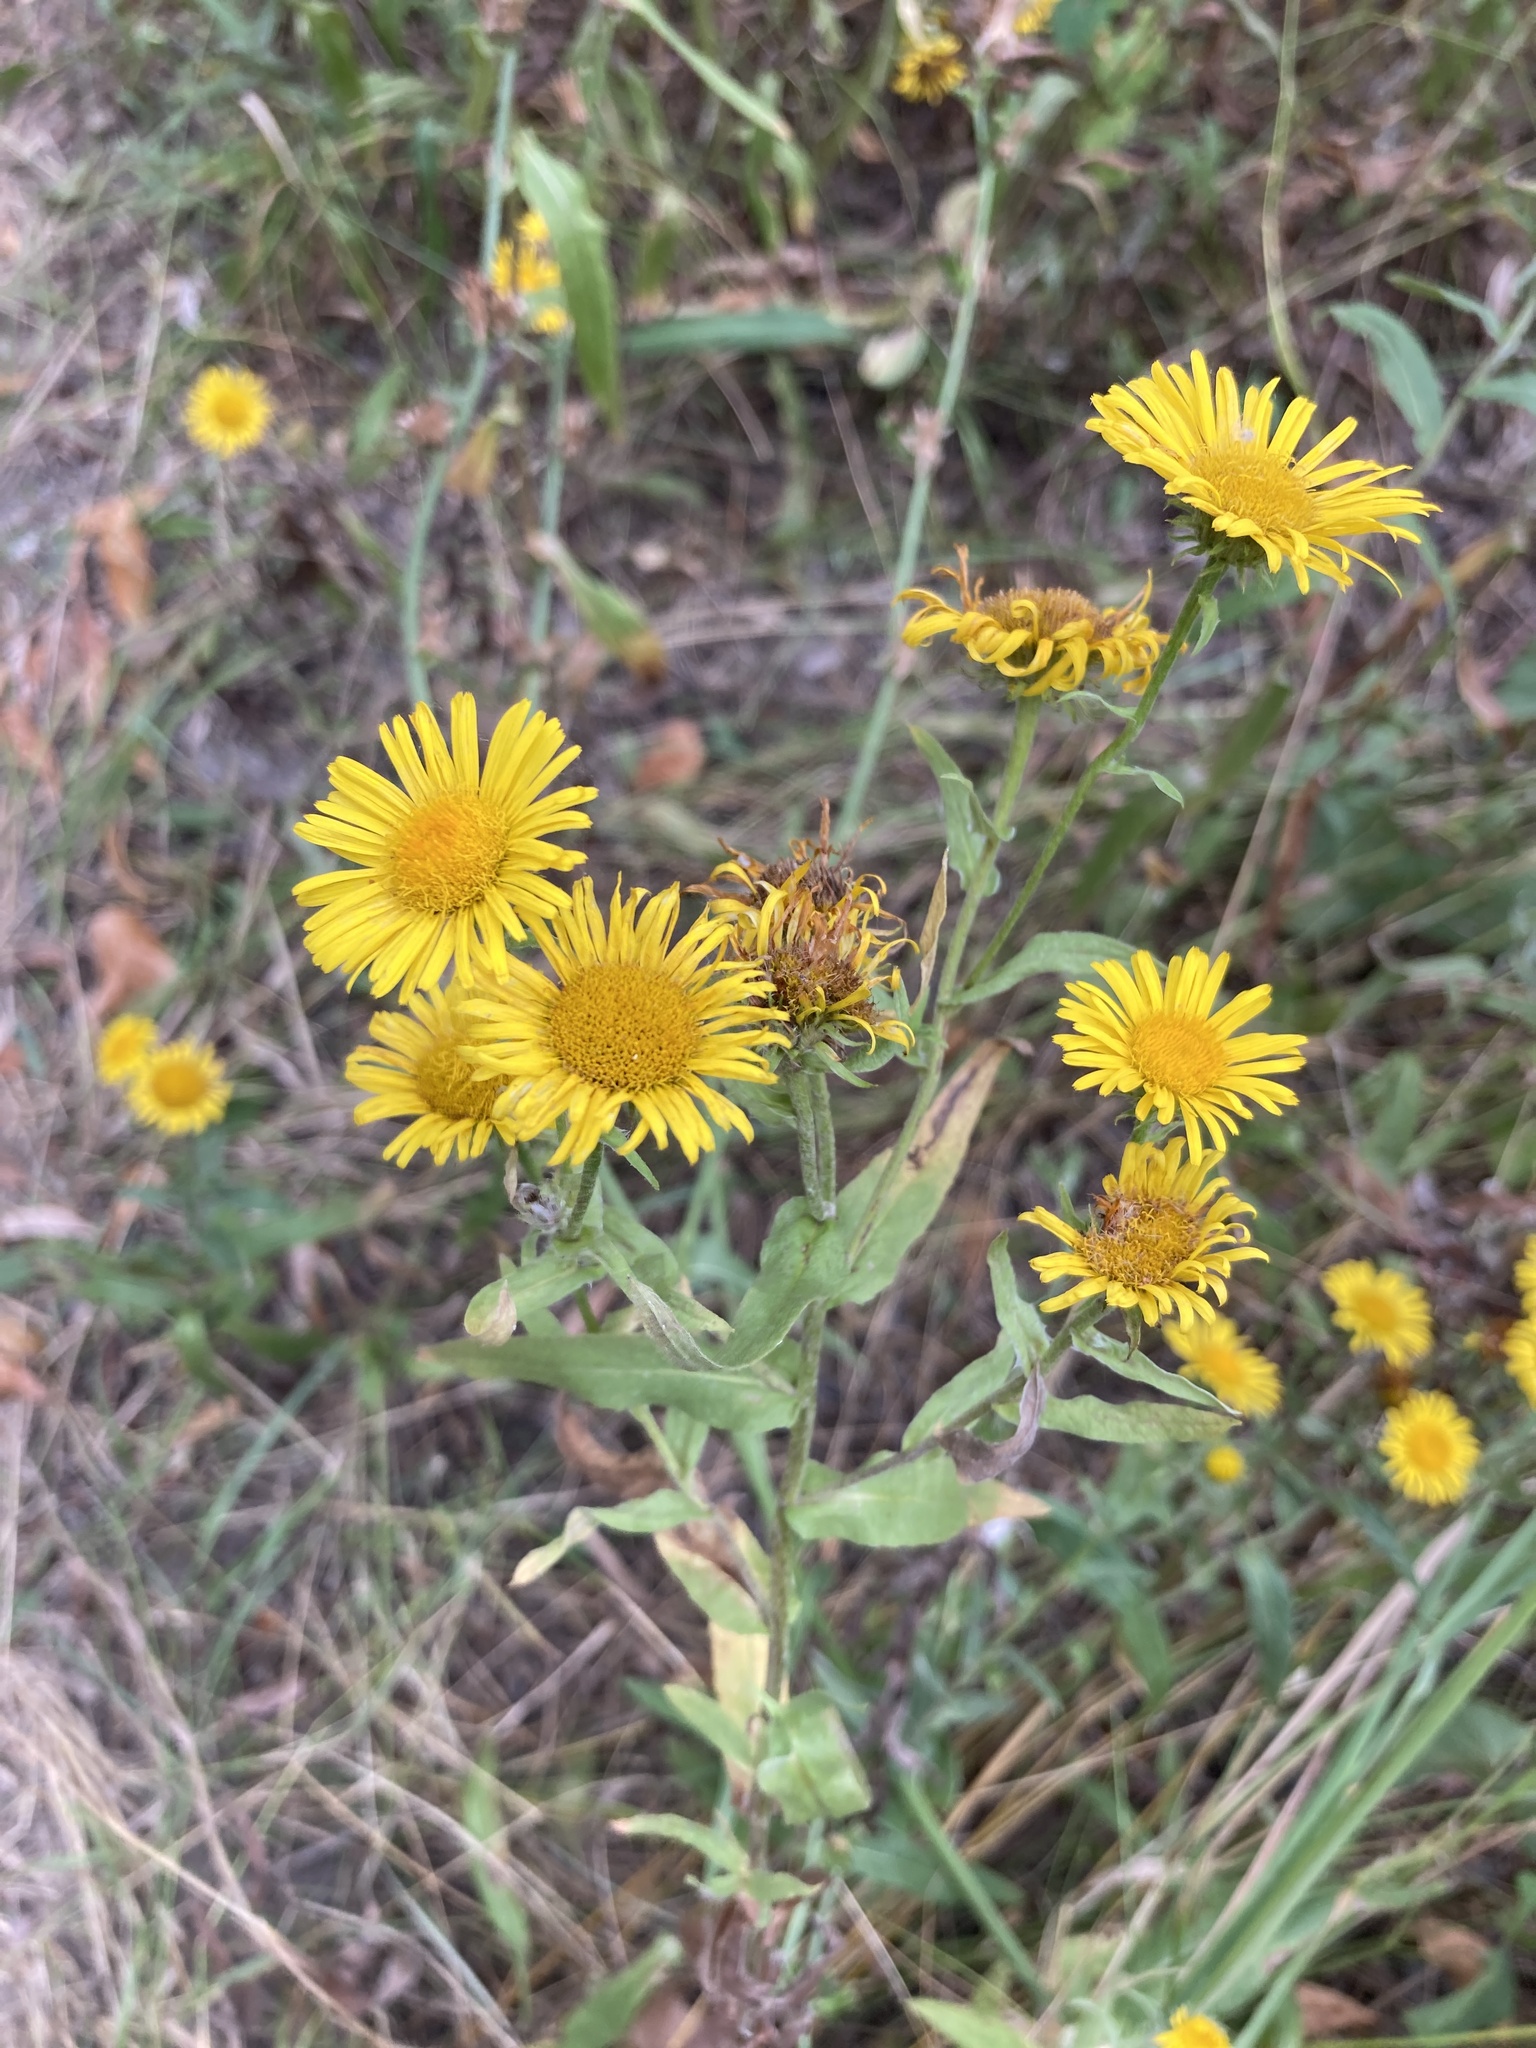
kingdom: Plantae
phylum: Tracheophyta
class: Magnoliopsida
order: Asterales
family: Asteraceae
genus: Pentanema
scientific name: Pentanema britannicum
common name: British elecampane
